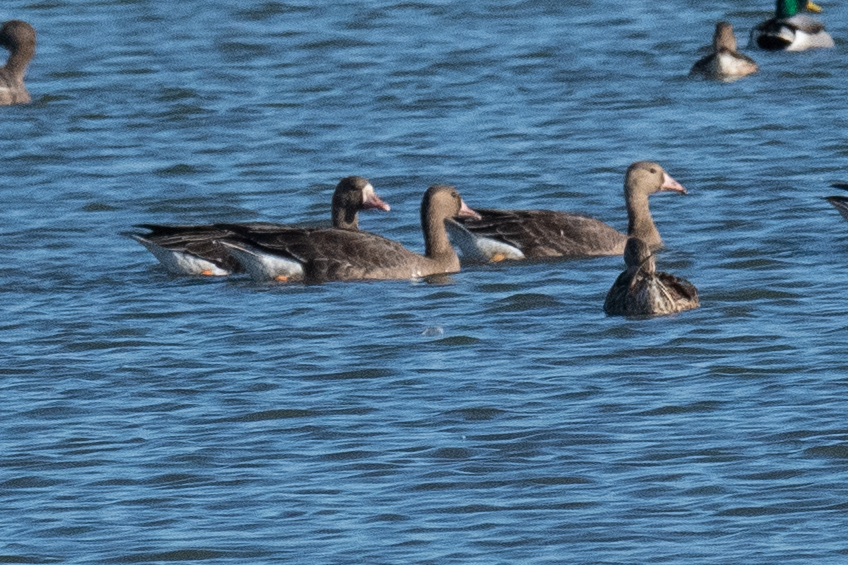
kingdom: Animalia
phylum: Chordata
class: Aves
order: Anseriformes
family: Anatidae
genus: Anser
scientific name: Anser albifrons
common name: Greater white-fronted goose
